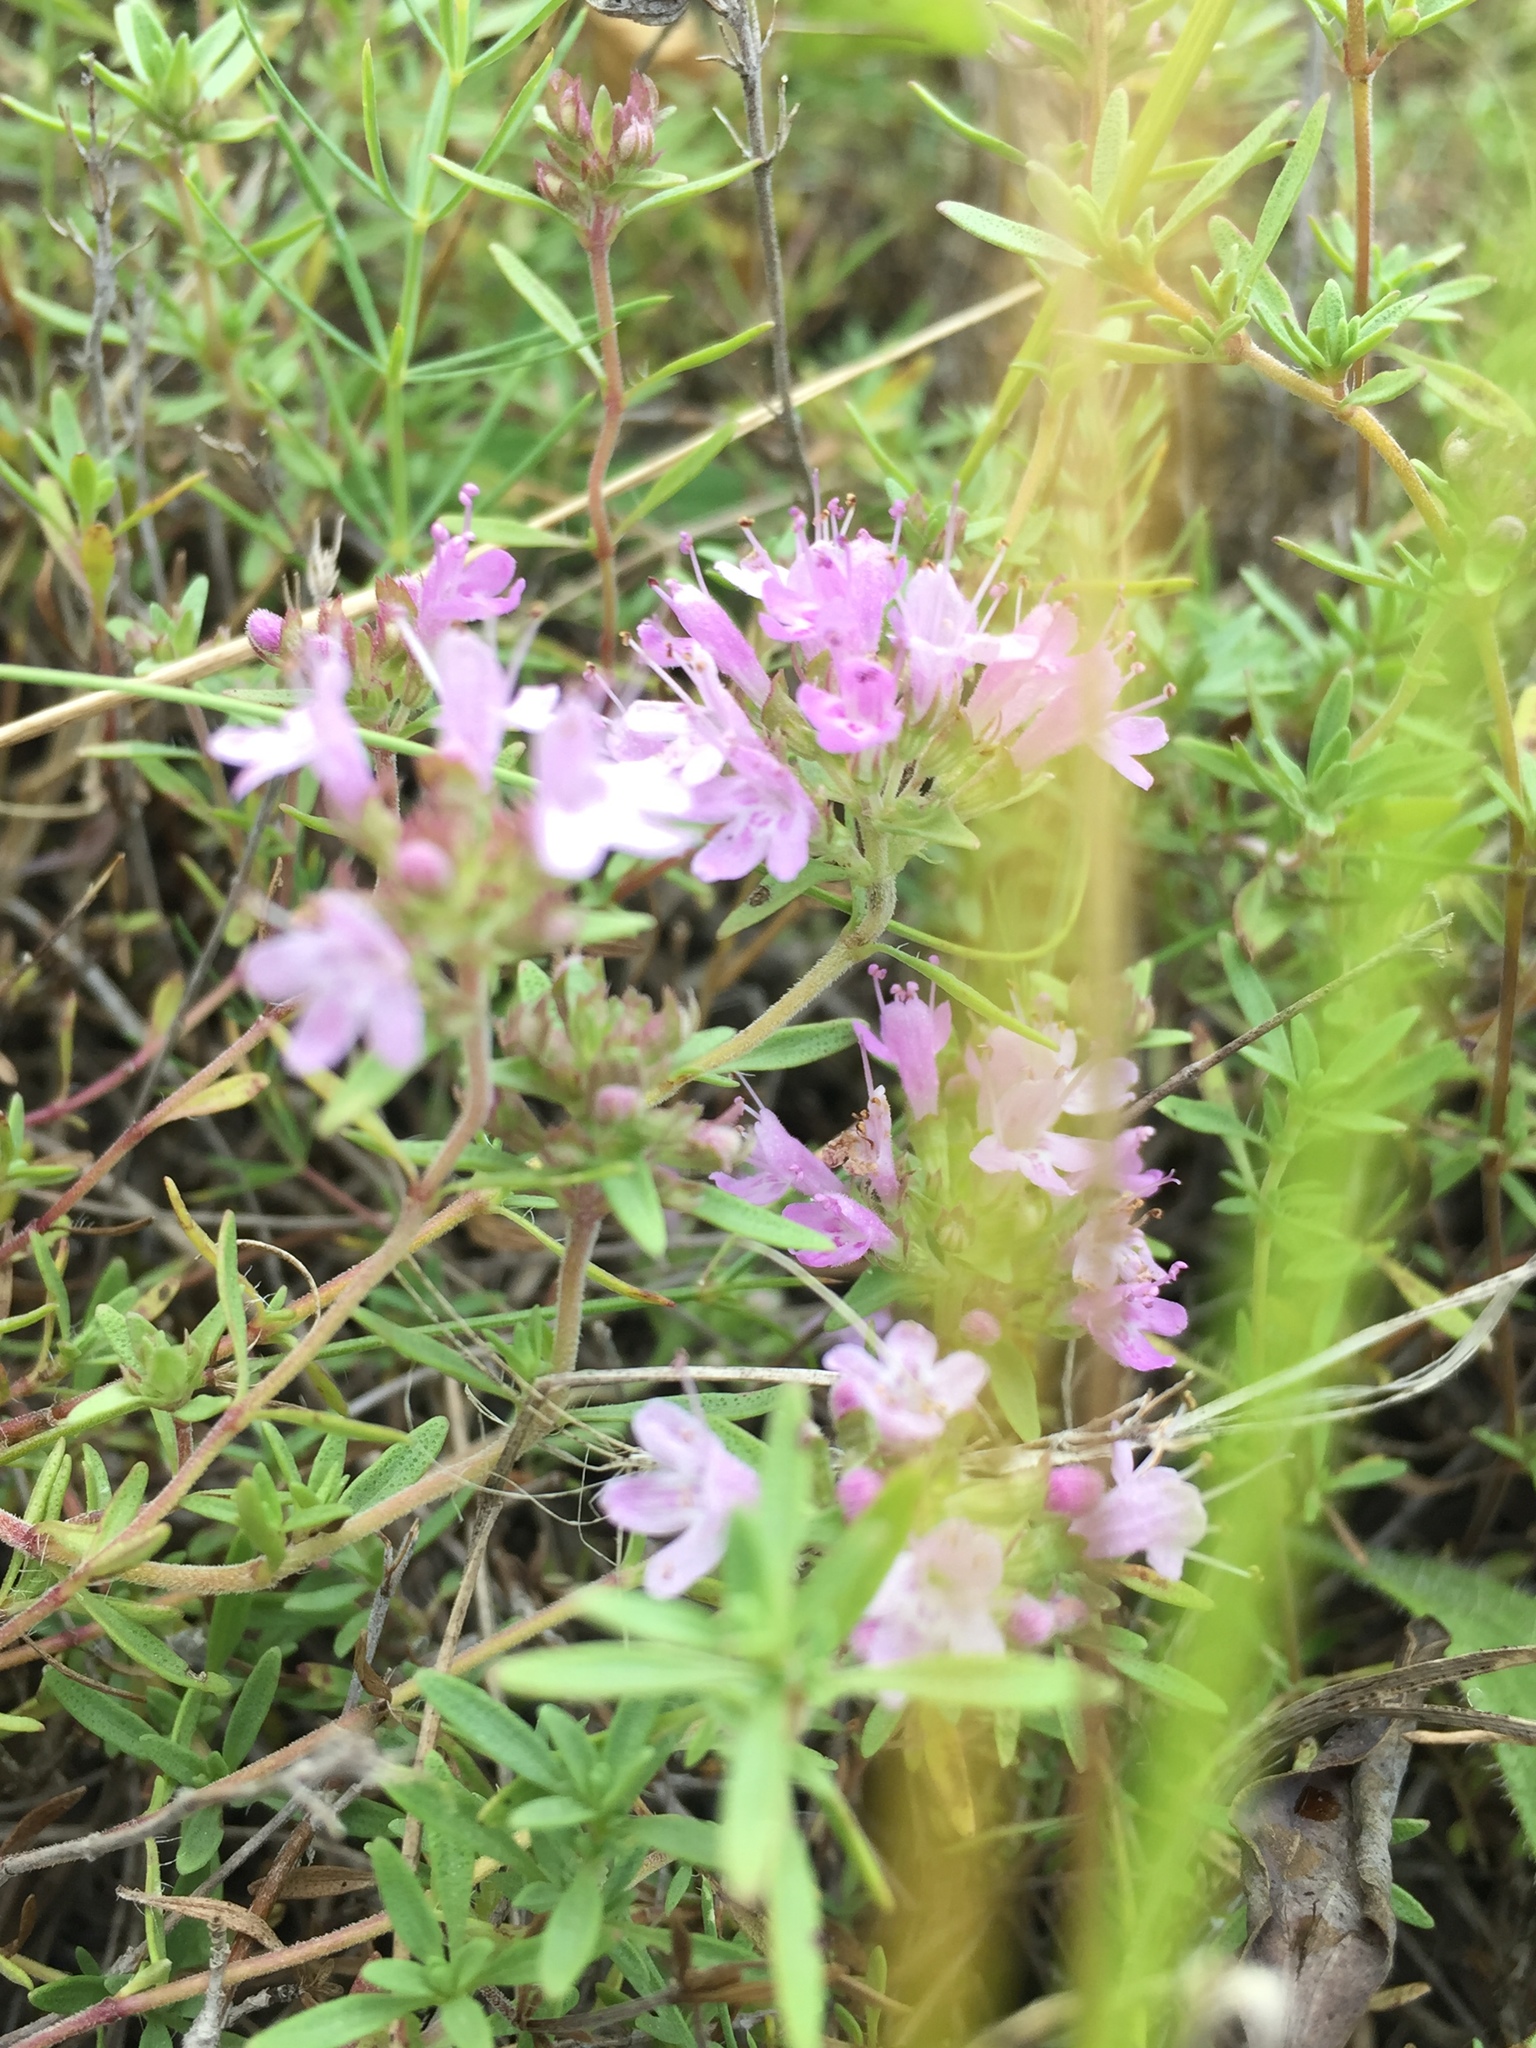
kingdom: Plantae
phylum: Tracheophyta
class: Magnoliopsida
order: Lamiales
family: Lamiaceae
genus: Thymus
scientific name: Thymus calcareus
